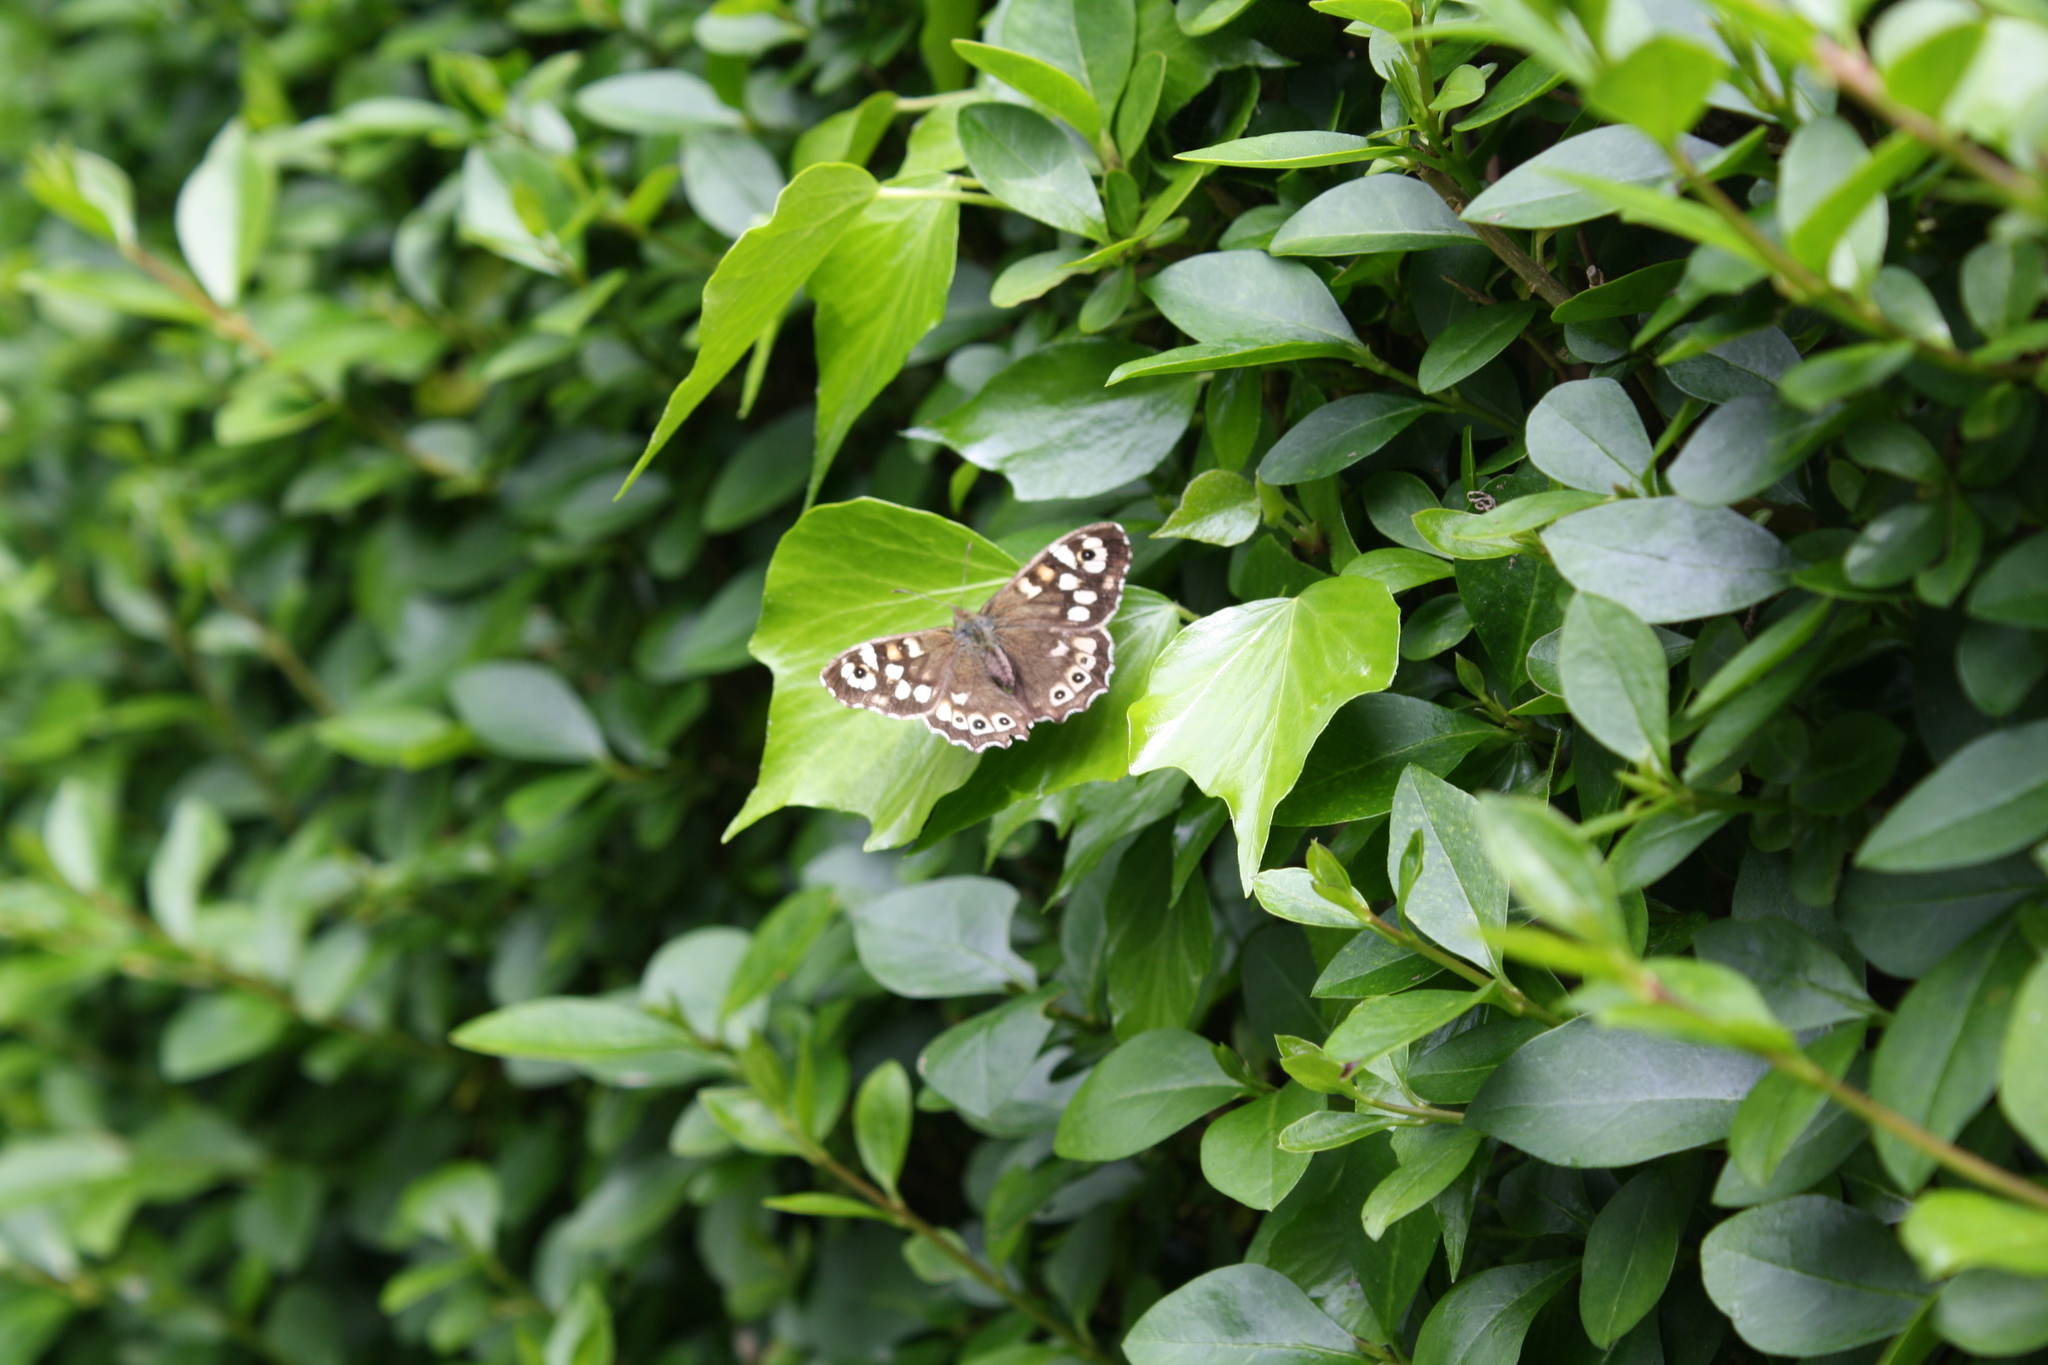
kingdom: Animalia
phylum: Arthropoda
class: Insecta
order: Lepidoptera
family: Nymphalidae
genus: Pararge
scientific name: Pararge aegeria
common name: Speckled wood
